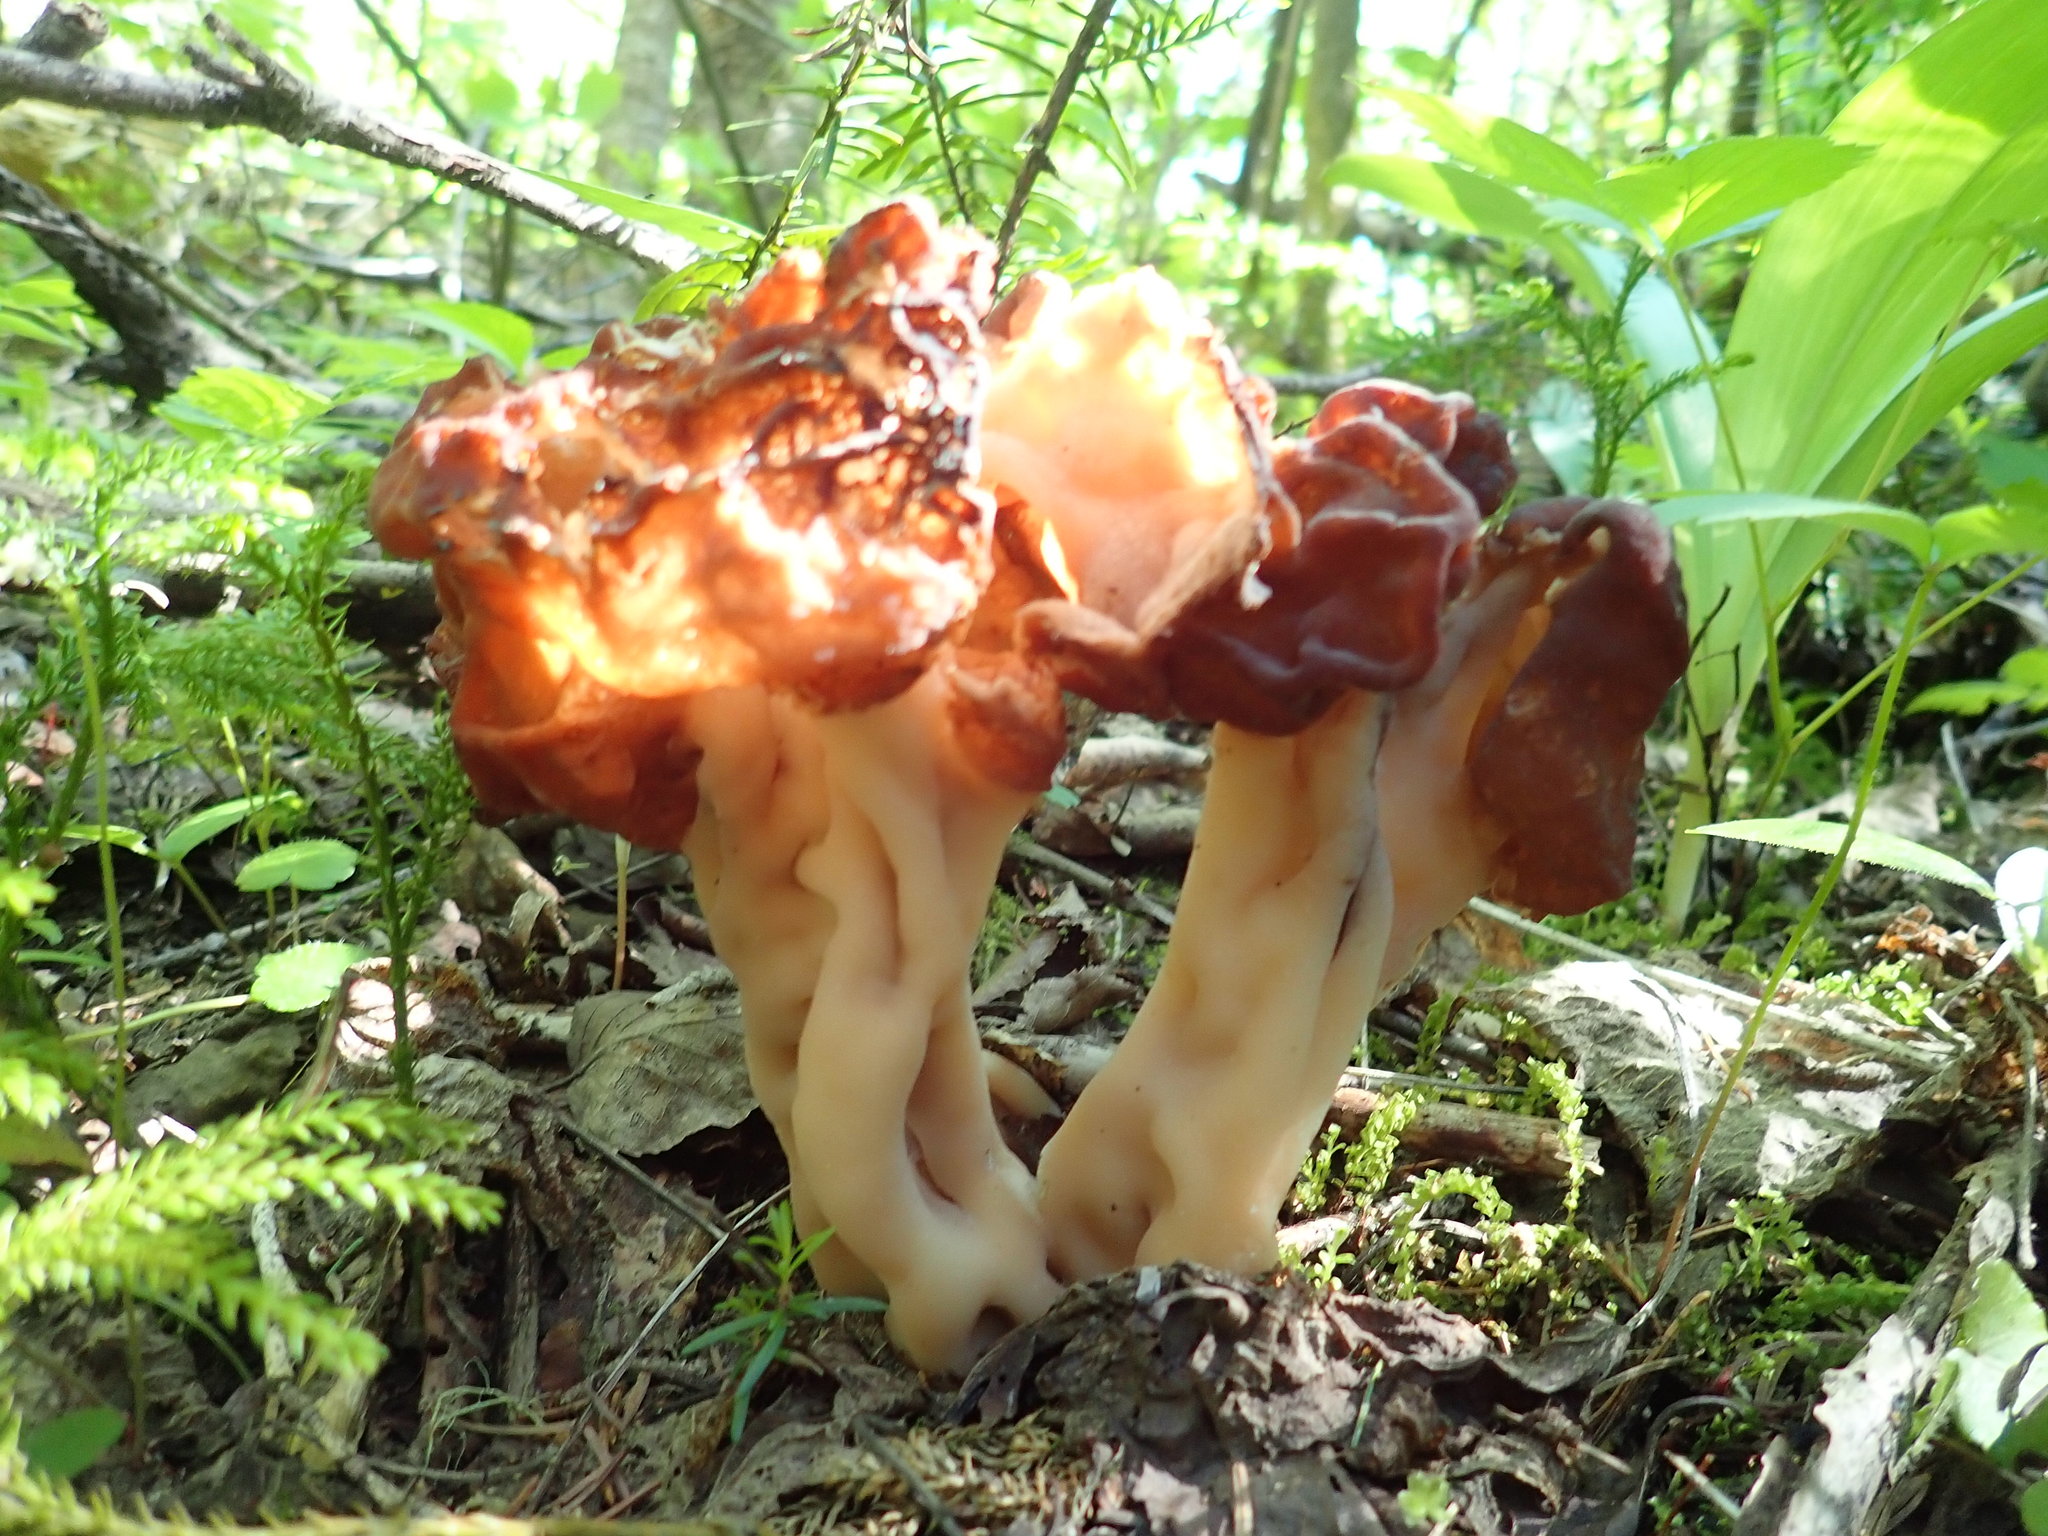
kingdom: Fungi
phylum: Ascomycota
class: Pezizomycetes
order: Pezizales
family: Discinaceae
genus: Gyromitra
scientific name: Gyromitra esculenta
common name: False morel
